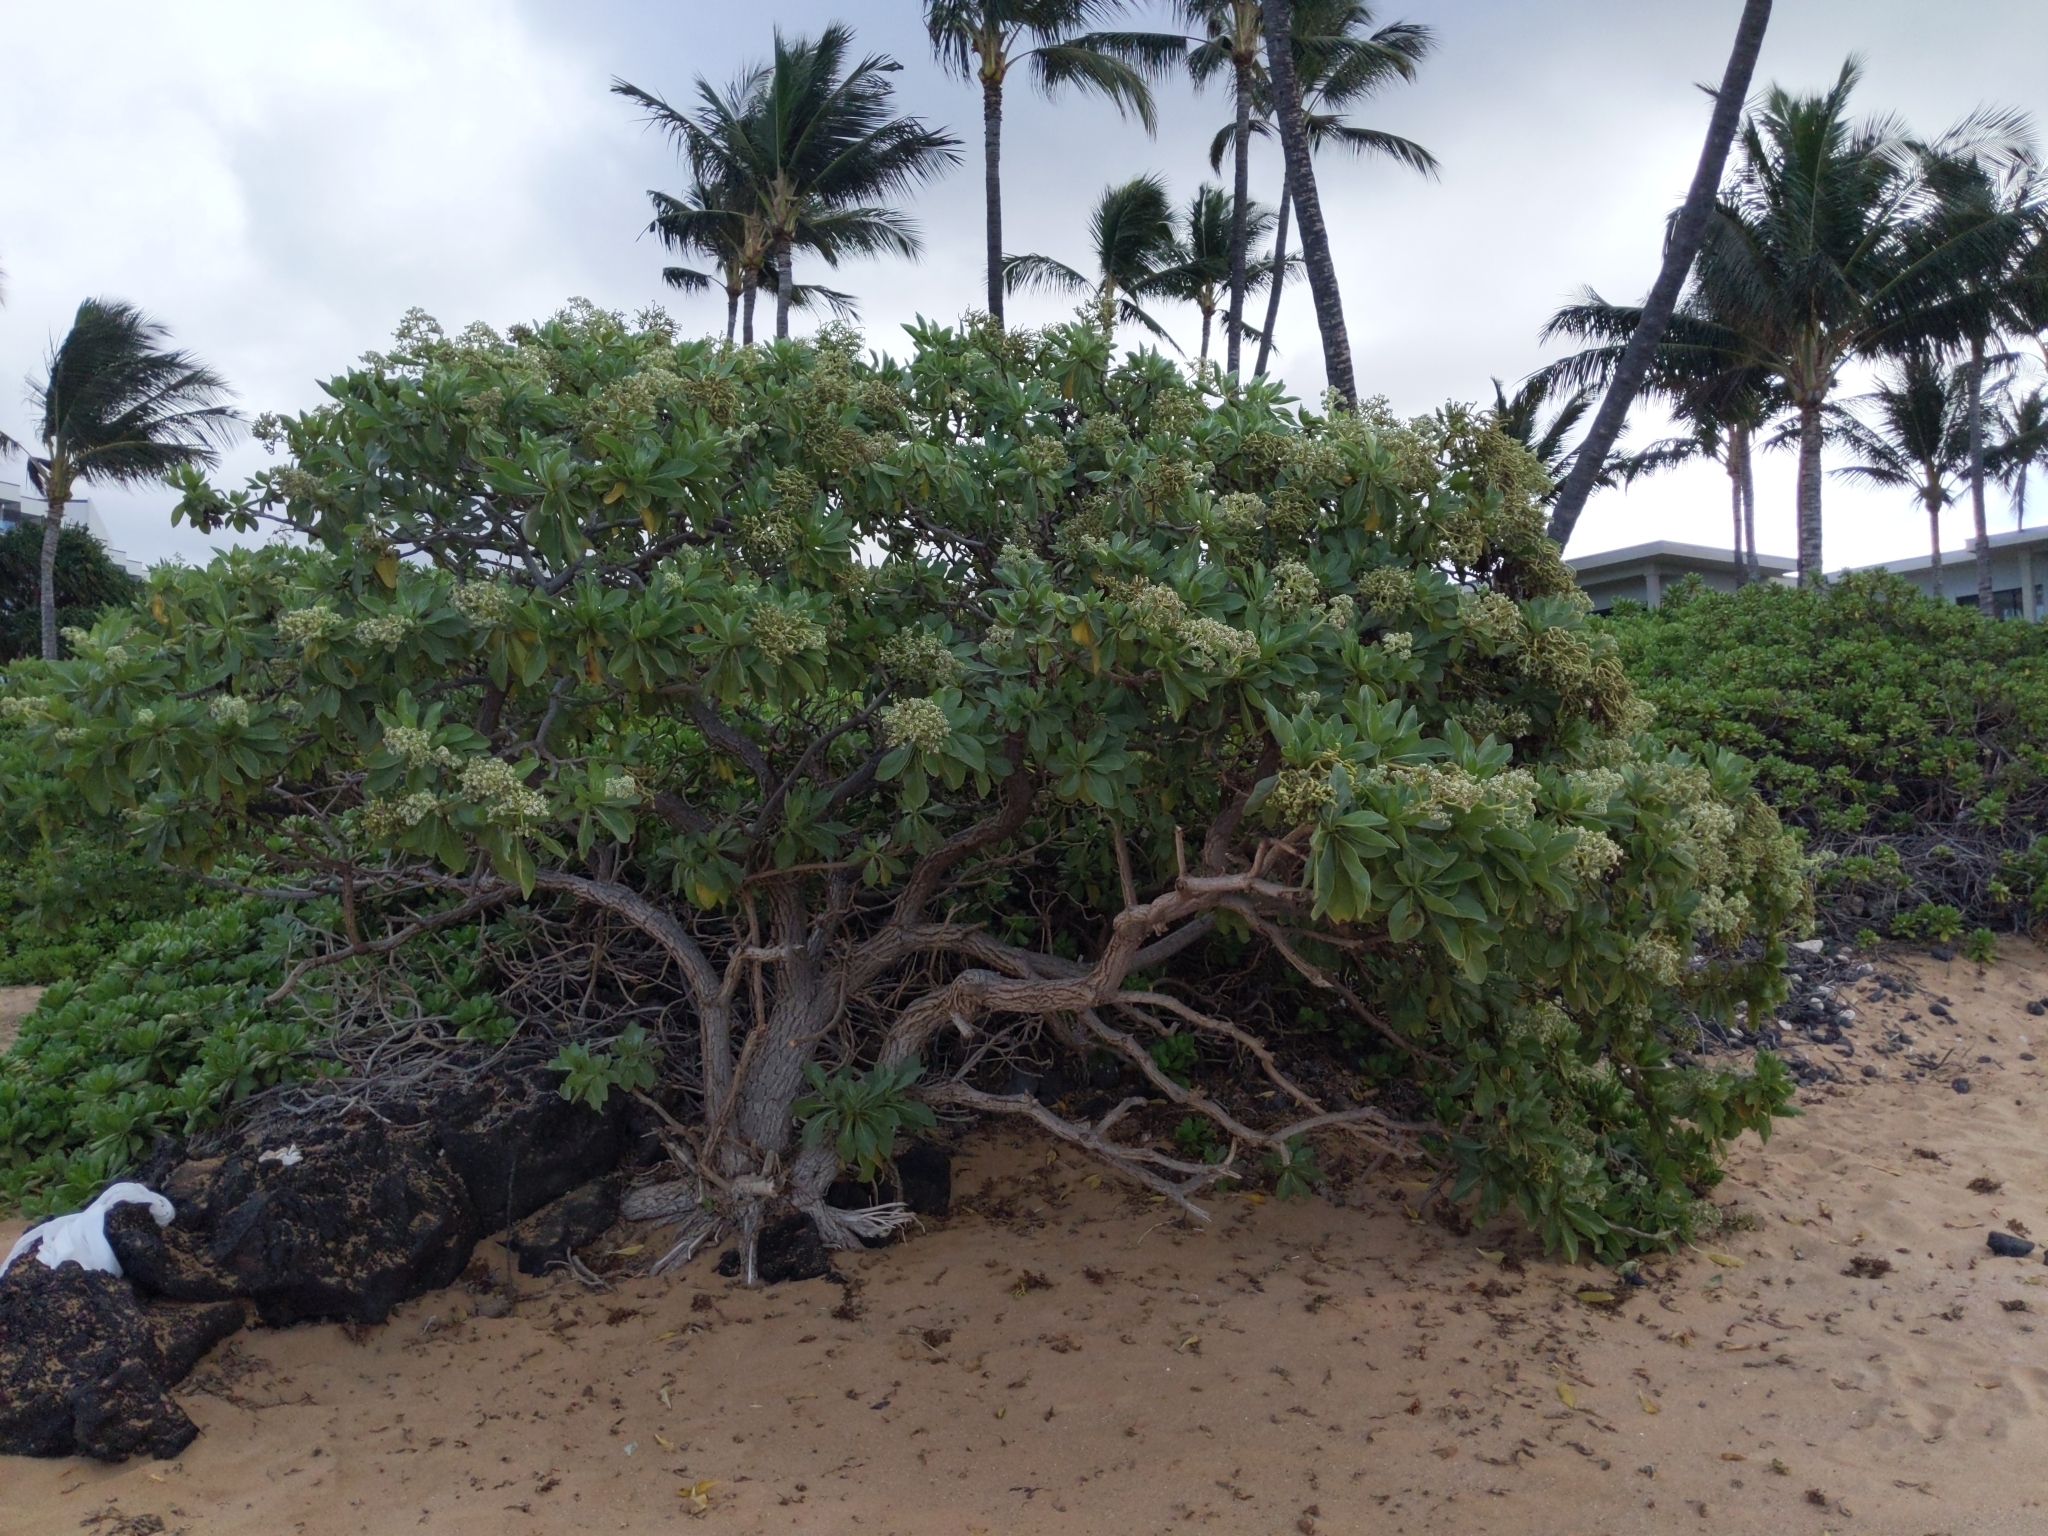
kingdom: Plantae
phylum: Tracheophyta
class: Magnoliopsida
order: Boraginales
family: Heliotropiaceae
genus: Heliotropium
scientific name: Heliotropium velutinum
